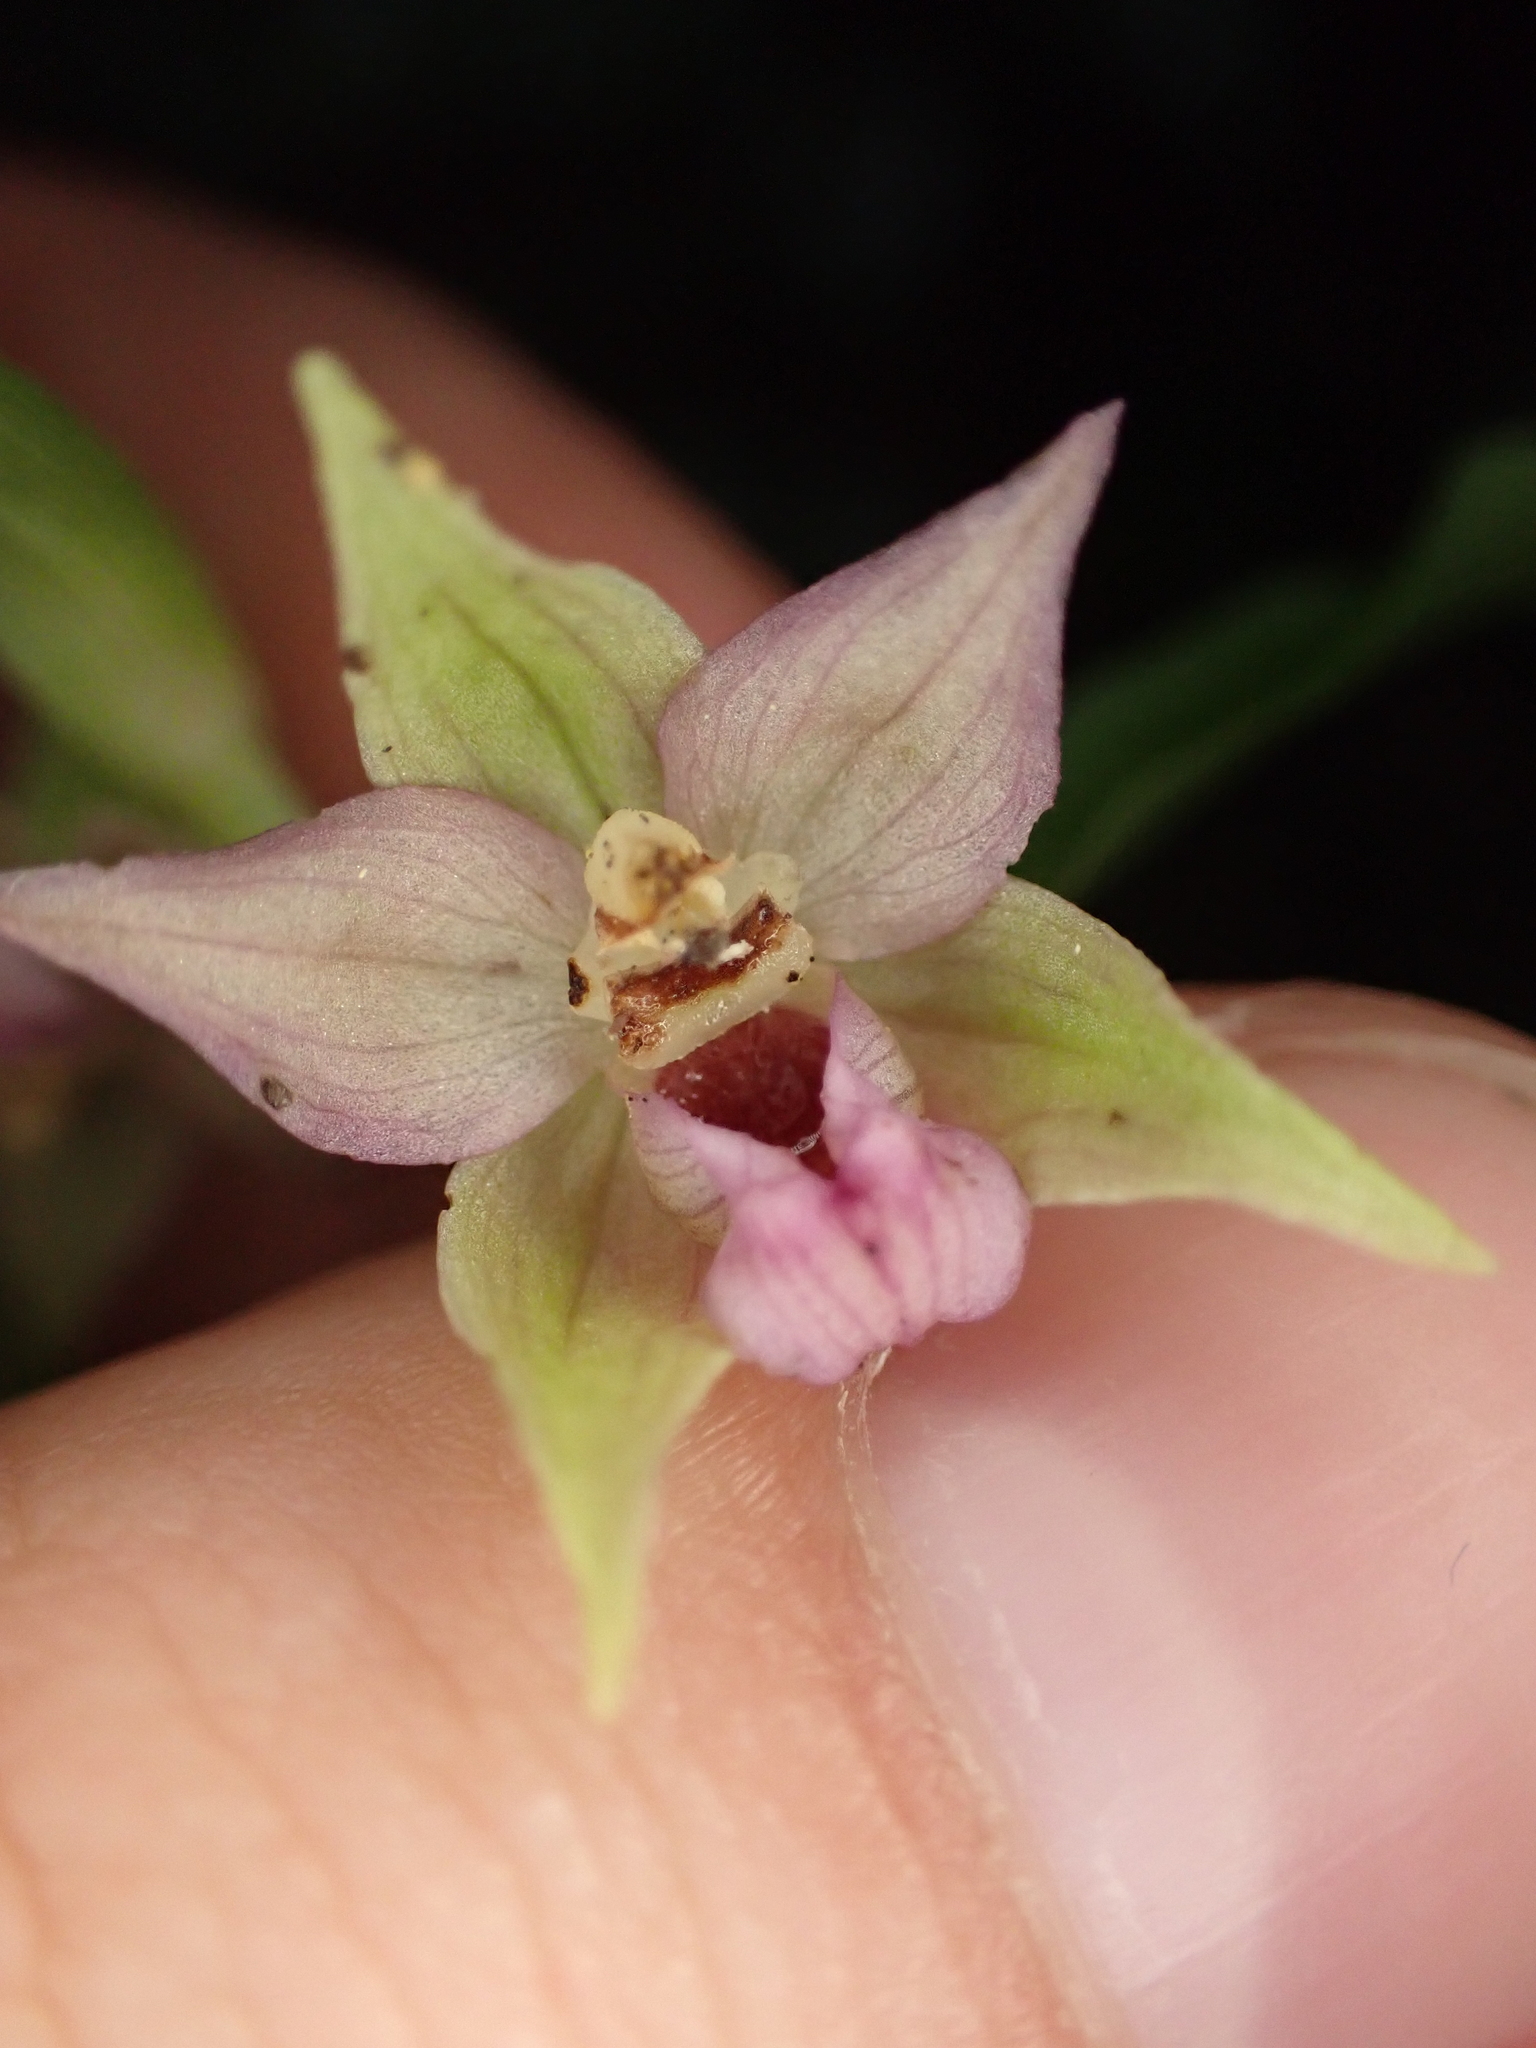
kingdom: Plantae
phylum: Tracheophyta
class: Liliopsida
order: Asparagales
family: Orchidaceae
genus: Epipactis
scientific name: Epipactis leptochila
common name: Narrow-lipped helleborine
